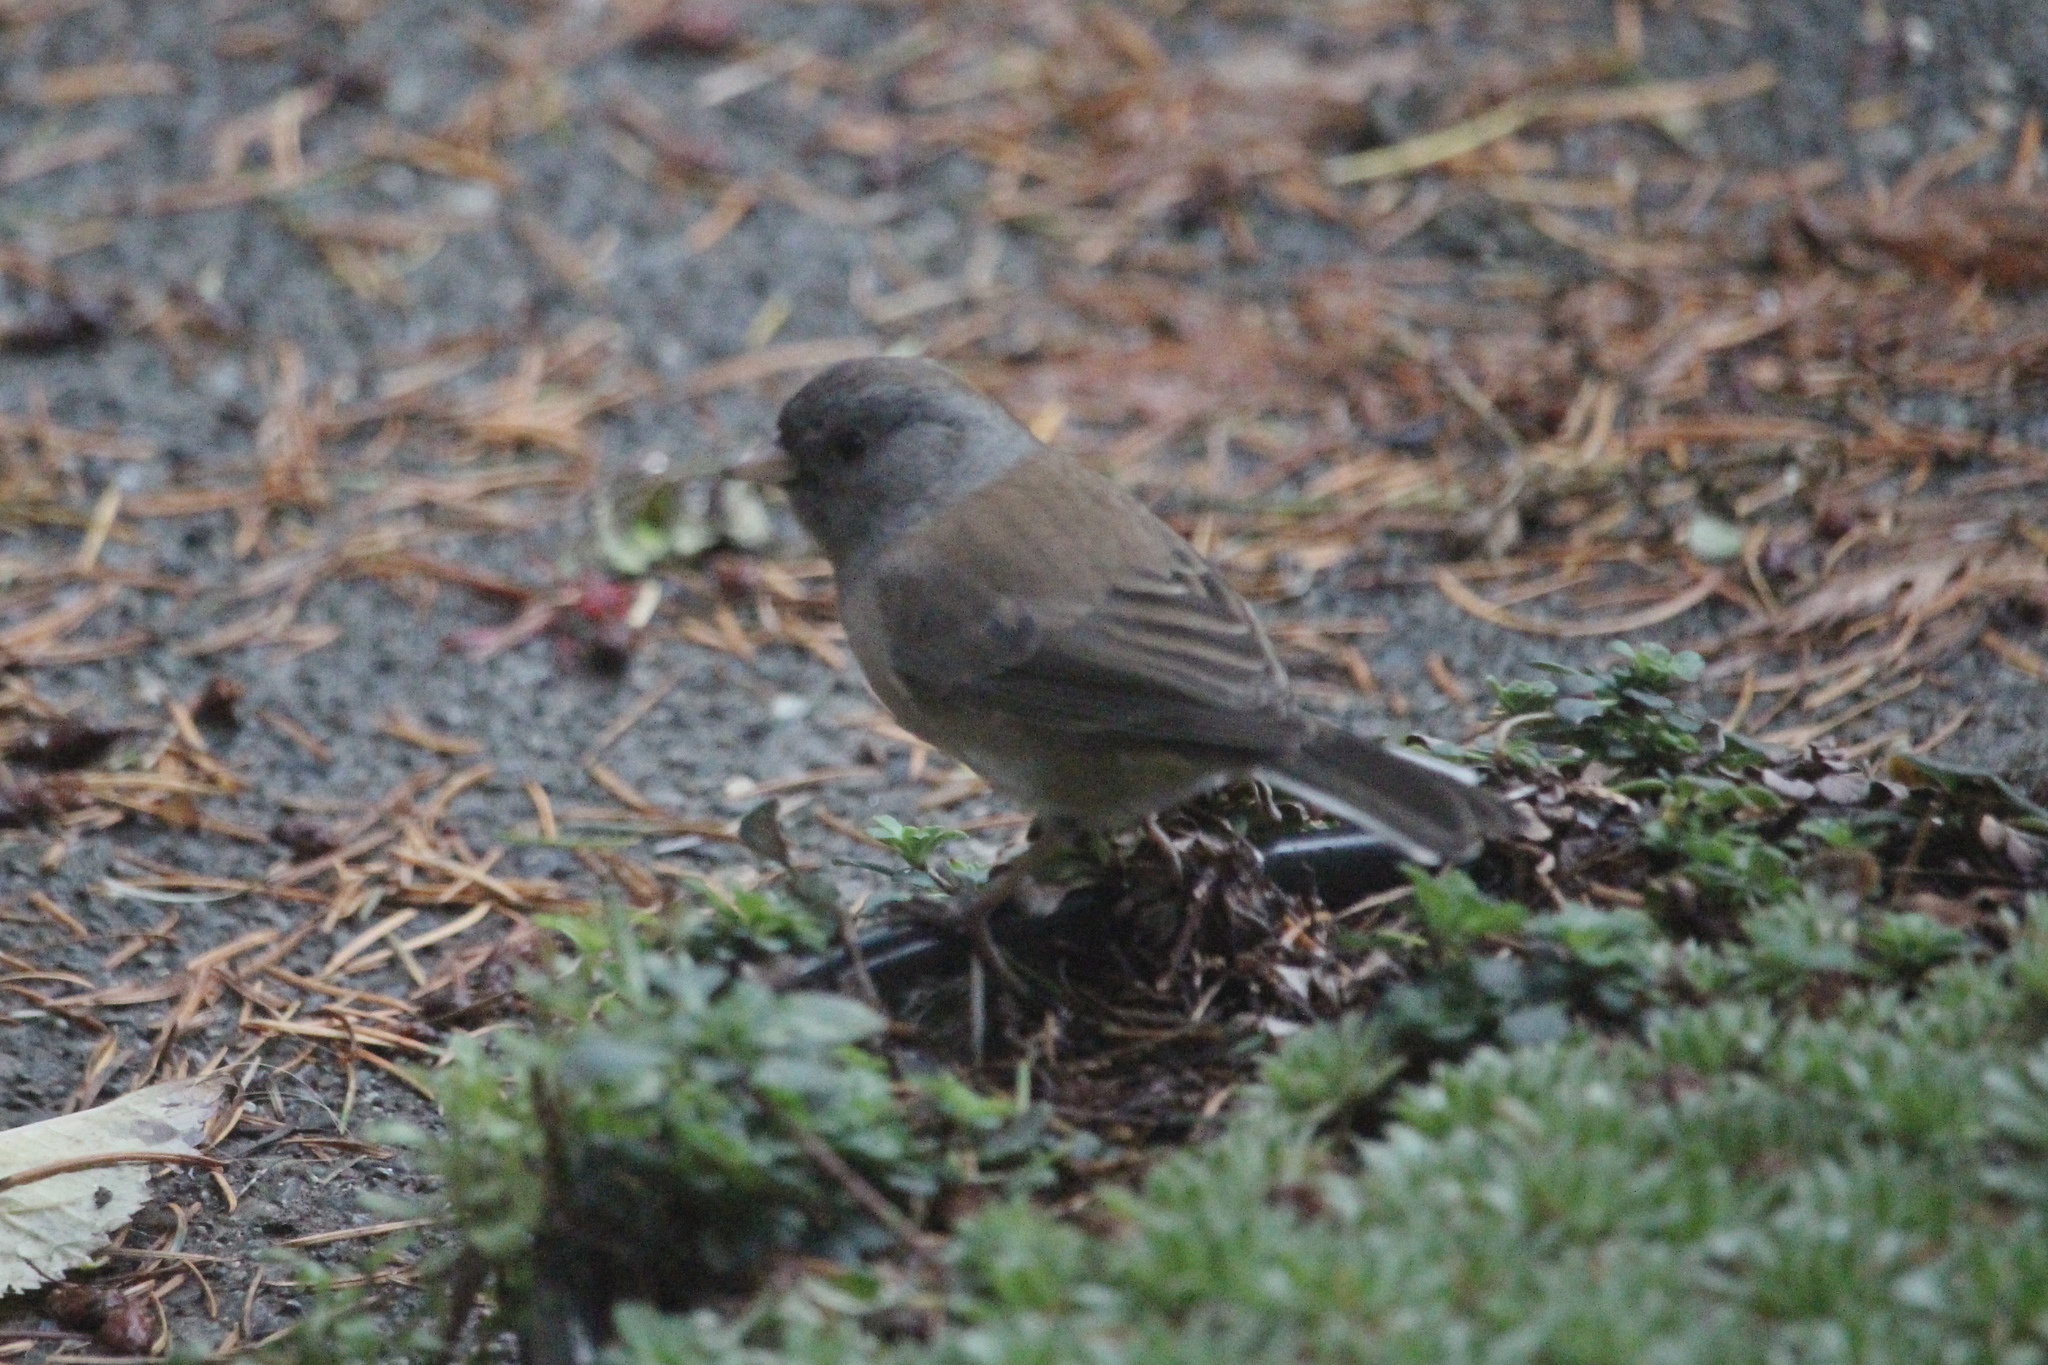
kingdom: Animalia
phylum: Chordata
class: Aves
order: Passeriformes
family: Passerellidae
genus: Junco
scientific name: Junco hyemalis
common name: Dark-eyed junco
